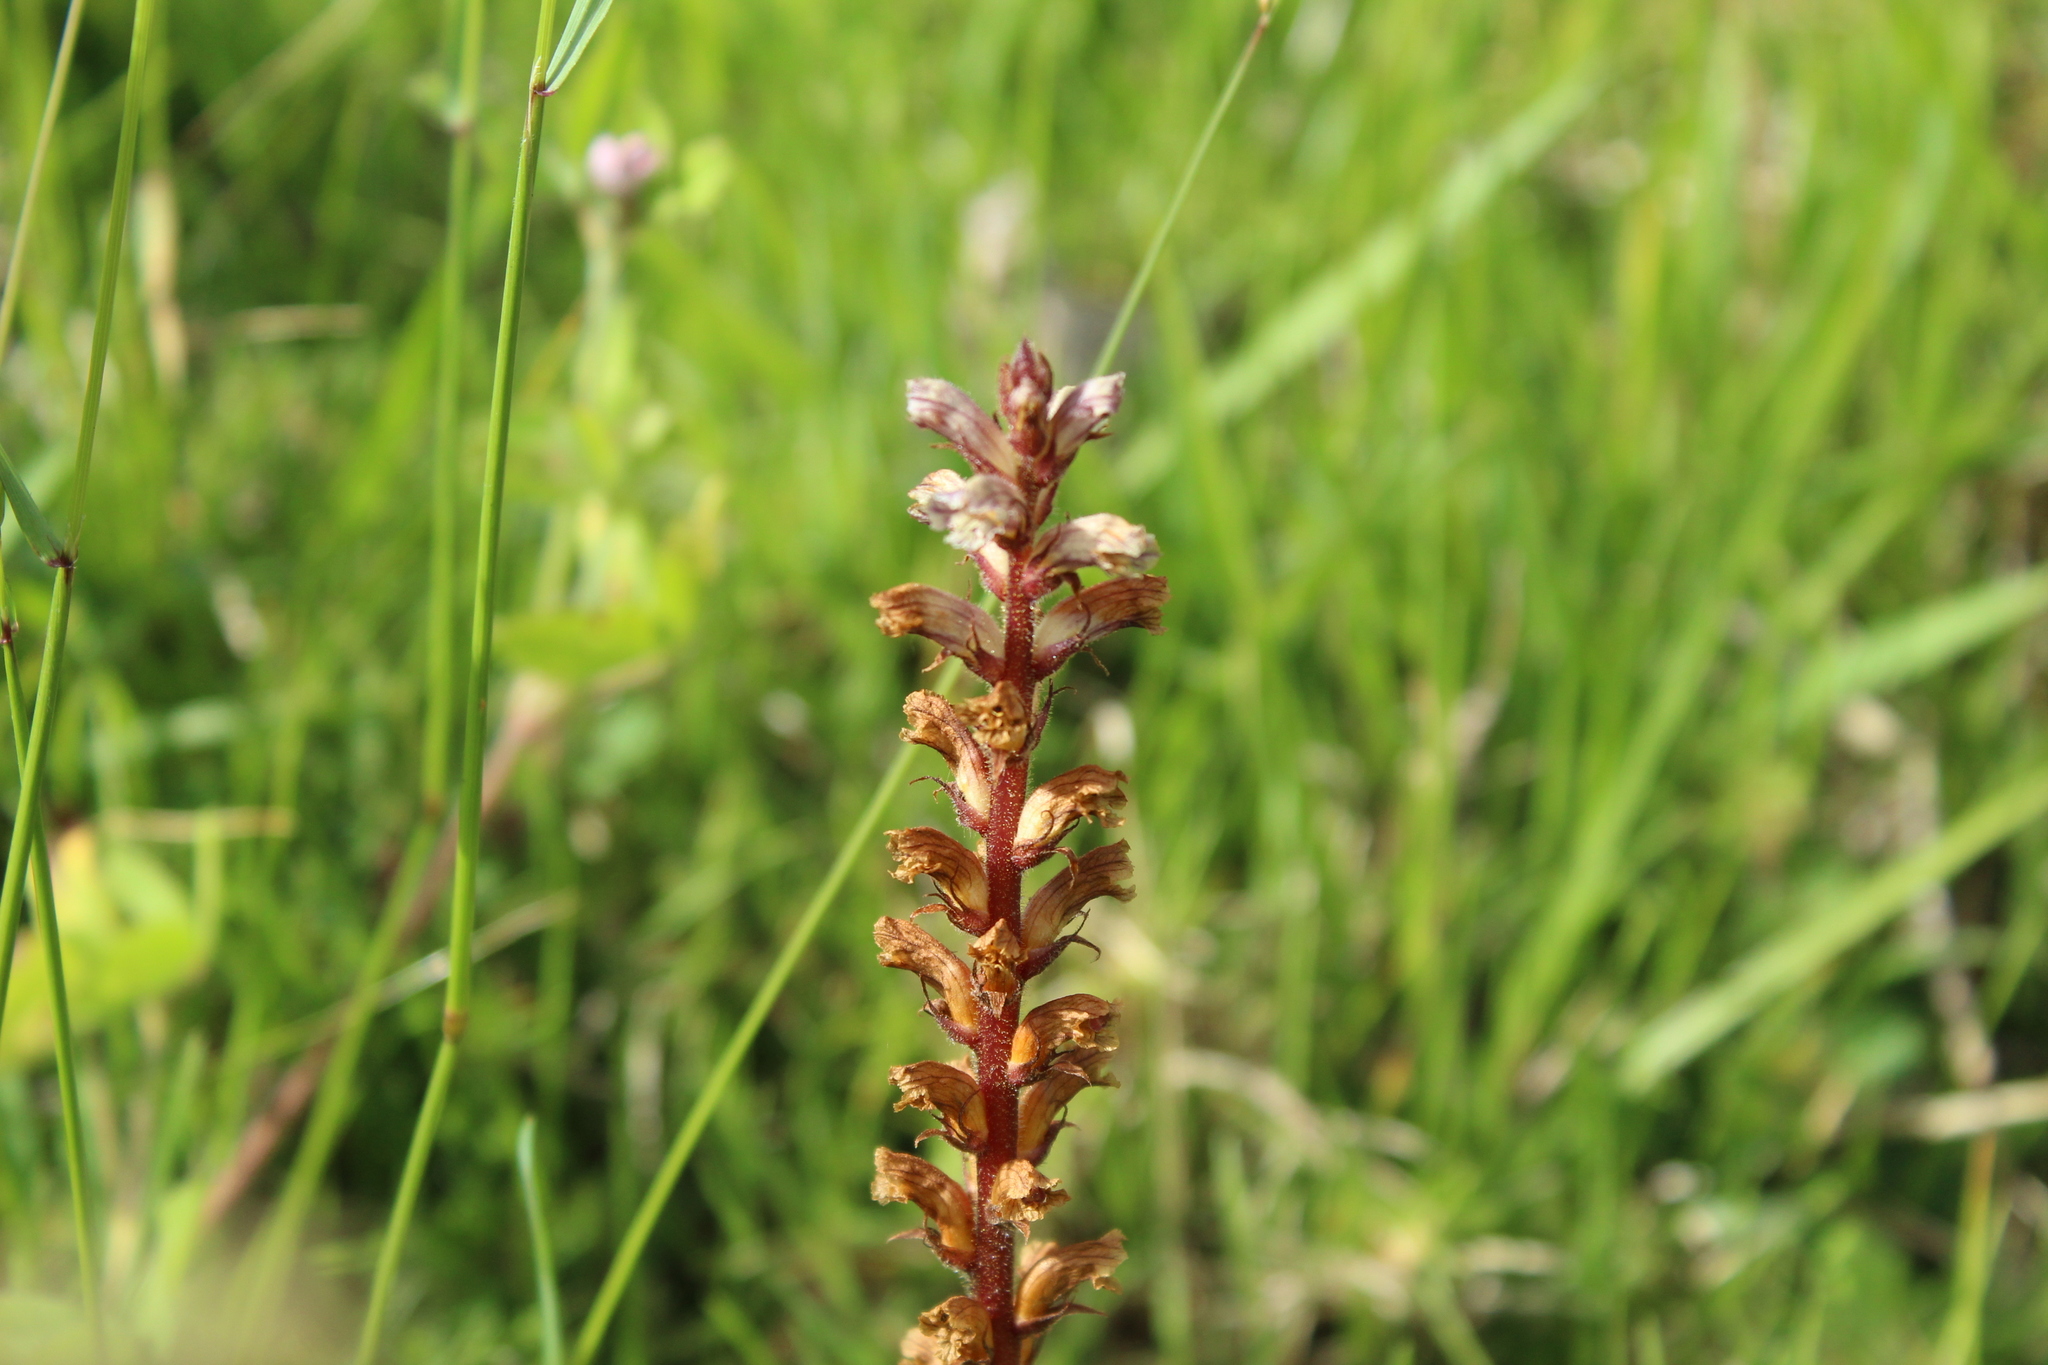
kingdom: Plantae
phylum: Tracheophyta
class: Magnoliopsida
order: Lamiales
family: Orobanchaceae
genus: Orobanche
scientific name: Orobanche minor
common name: Common broomrape
